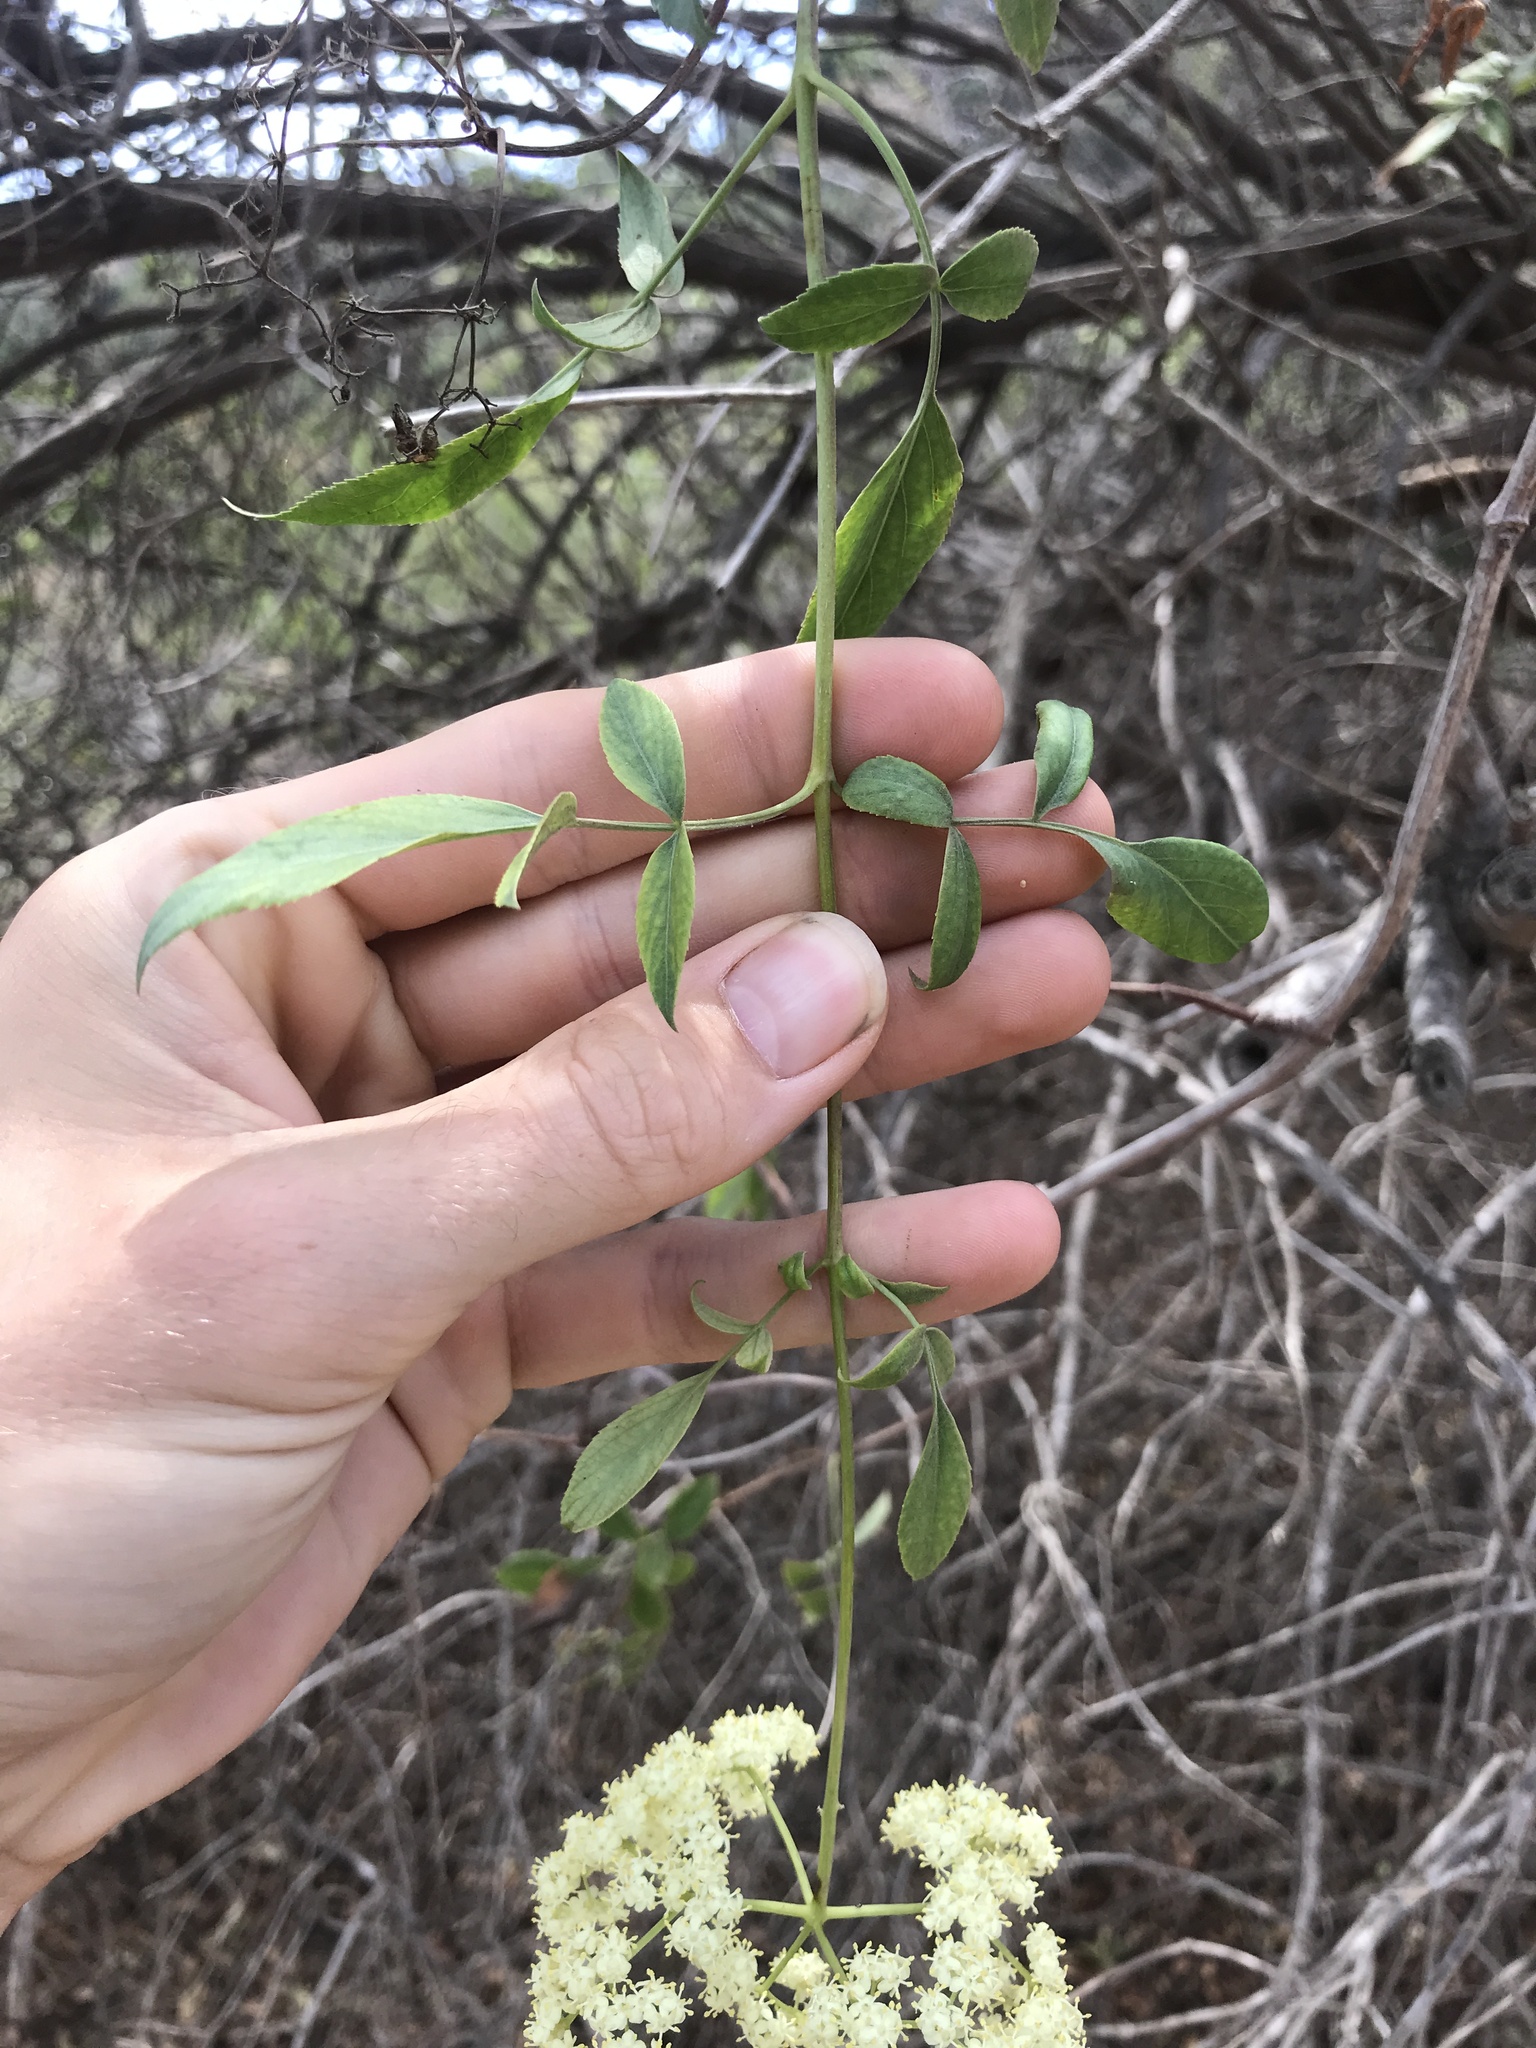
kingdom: Plantae
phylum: Tracheophyta
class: Magnoliopsida
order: Dipsacales
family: Viburnaceae
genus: Sambucus
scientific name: Sambucus cerulea
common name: Blue elder
